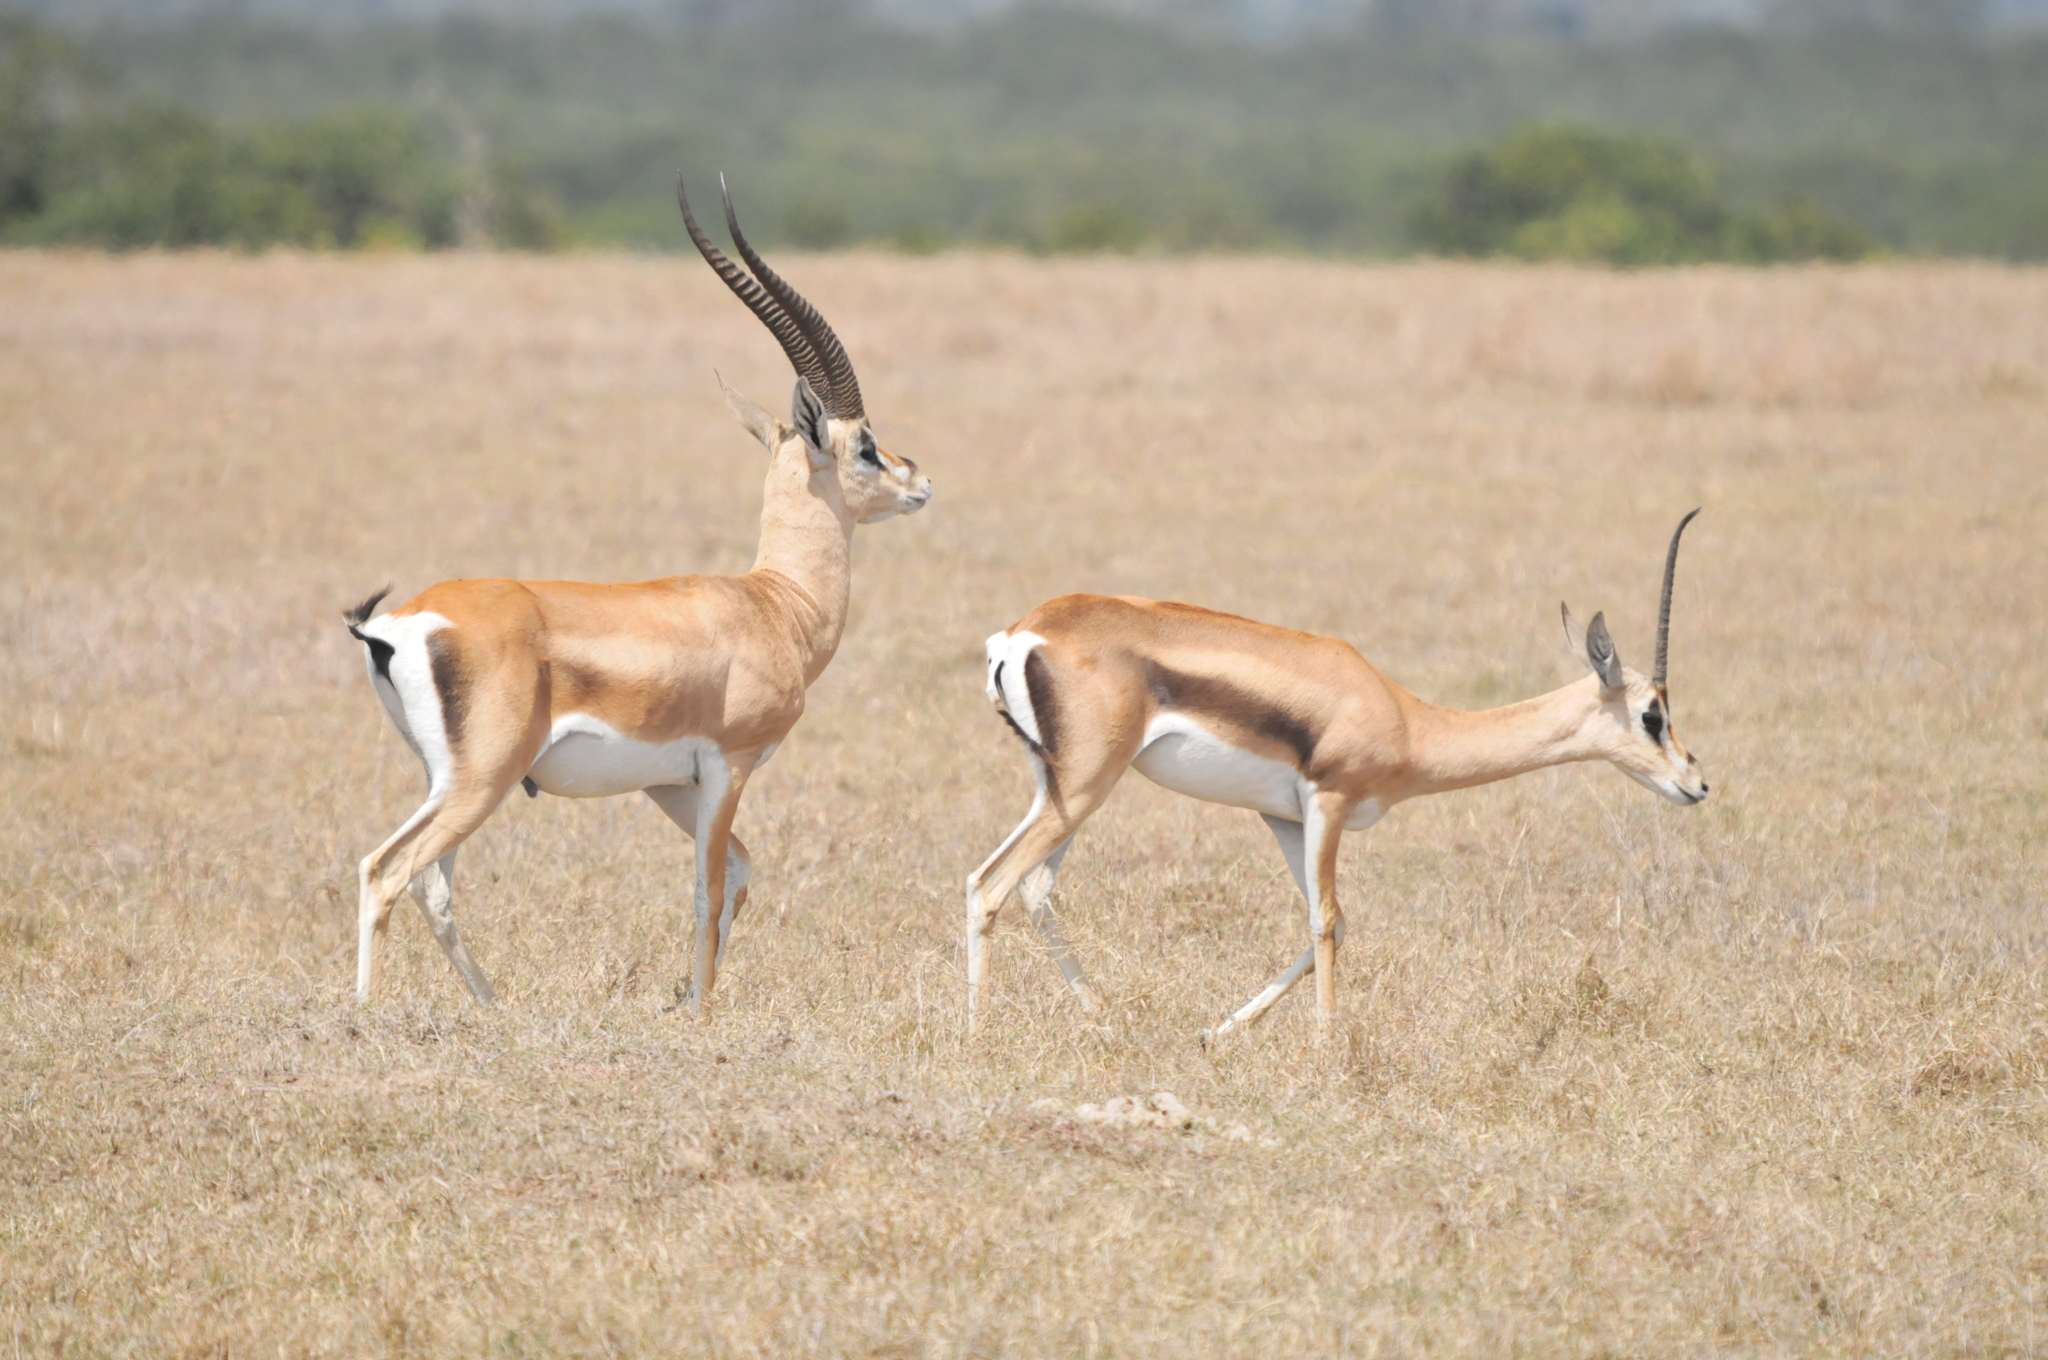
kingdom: Animalia
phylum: Chordata
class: Mammalia
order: Artiodactyla
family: Bovidae
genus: Nanger
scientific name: Nanger granti
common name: Grant's gazelle
